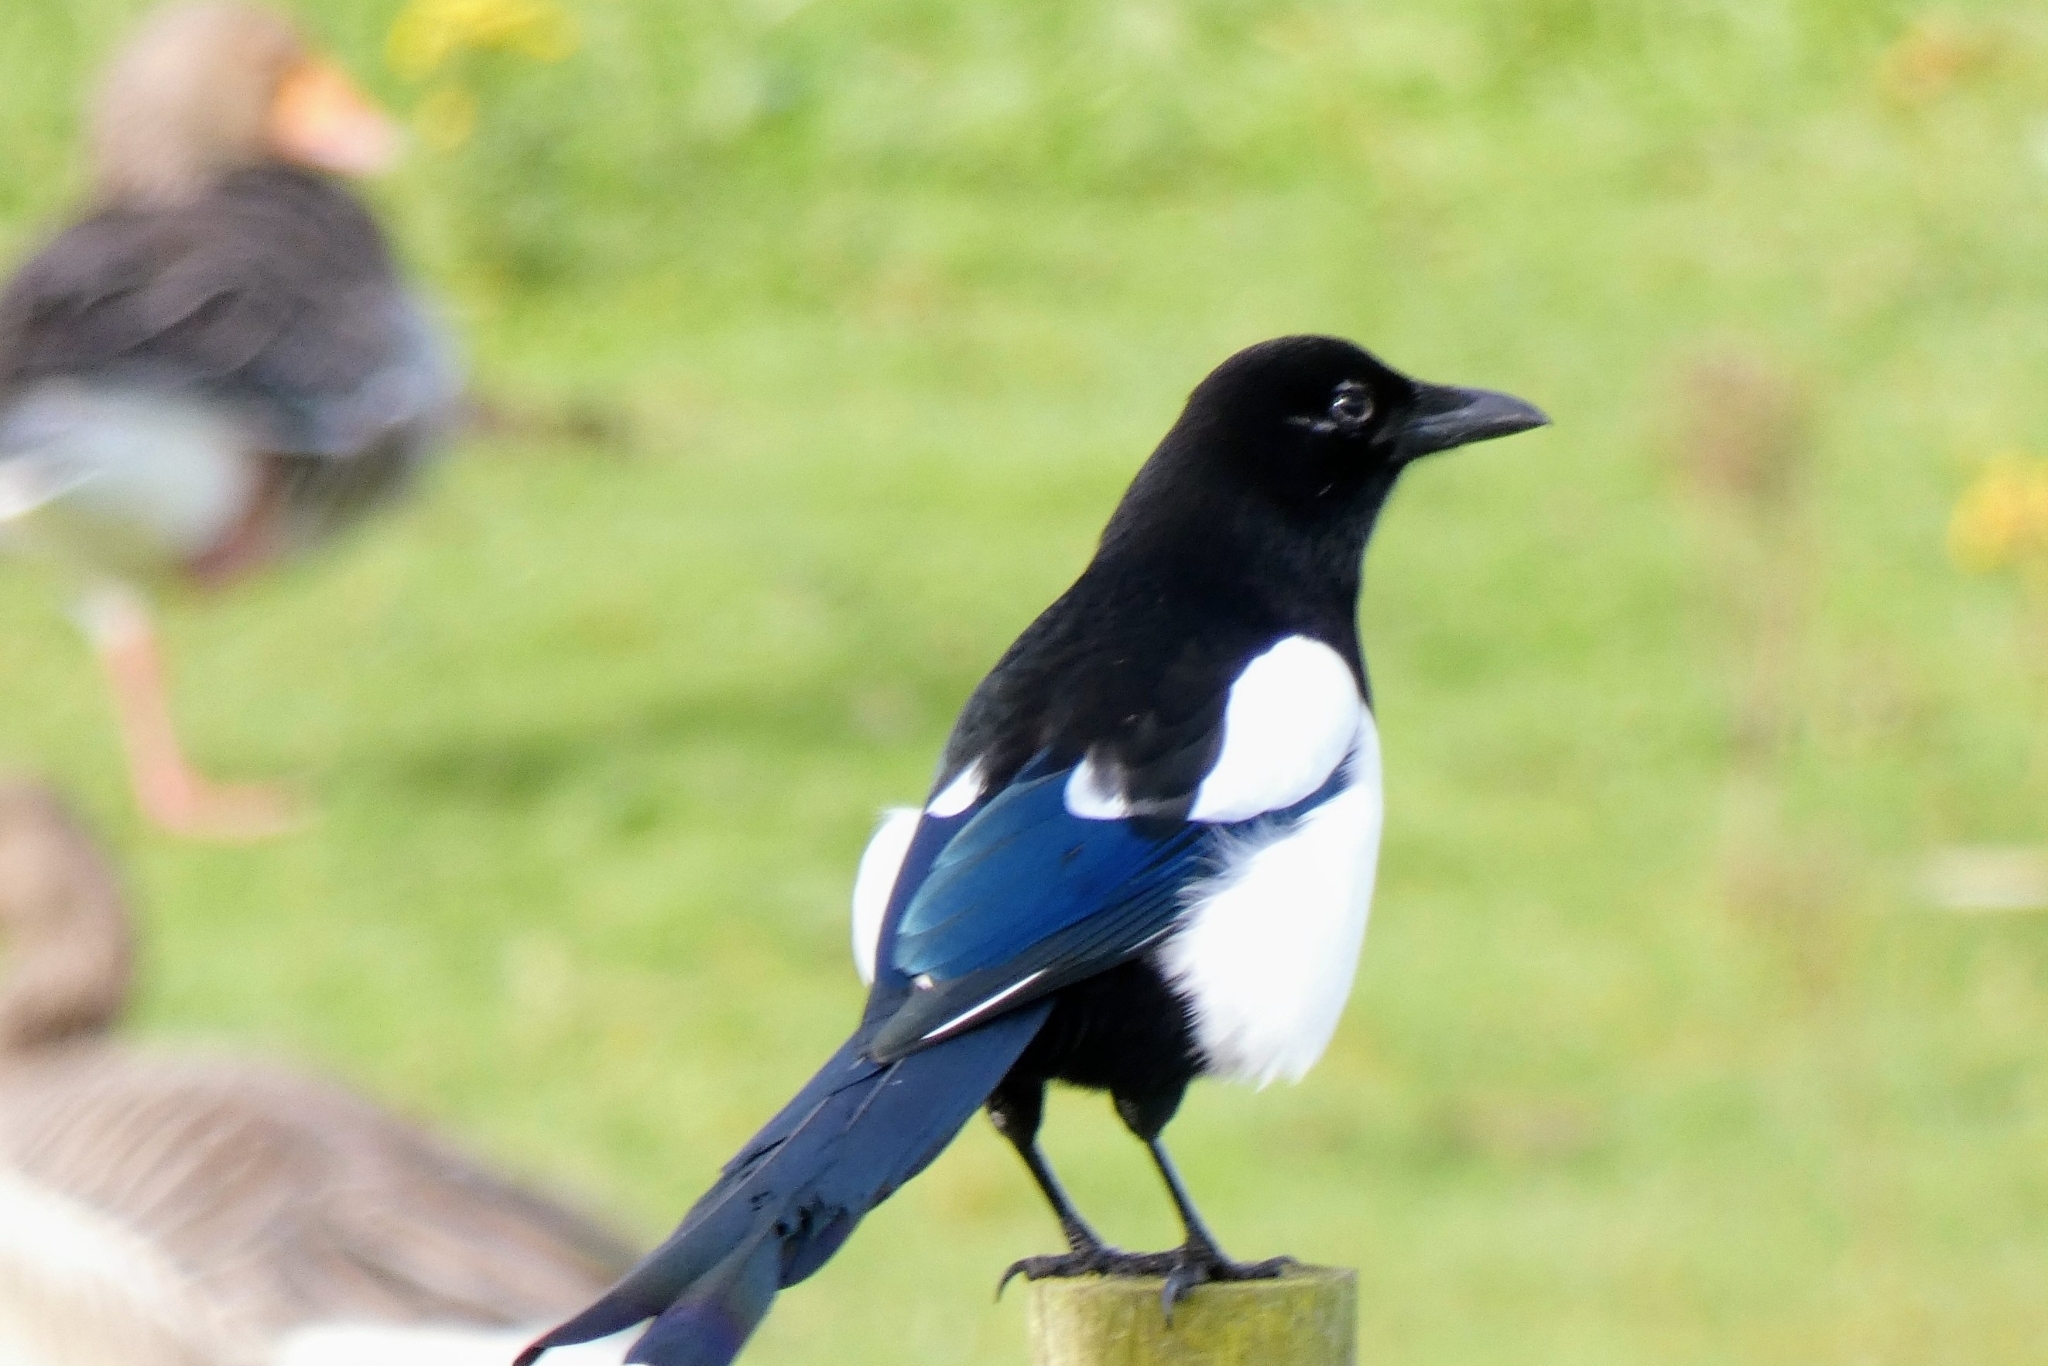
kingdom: Animalia
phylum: Chordata
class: Aves
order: Passeriformes
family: Corvidae
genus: Pica
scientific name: Pica pica
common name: Eurasian magpie
